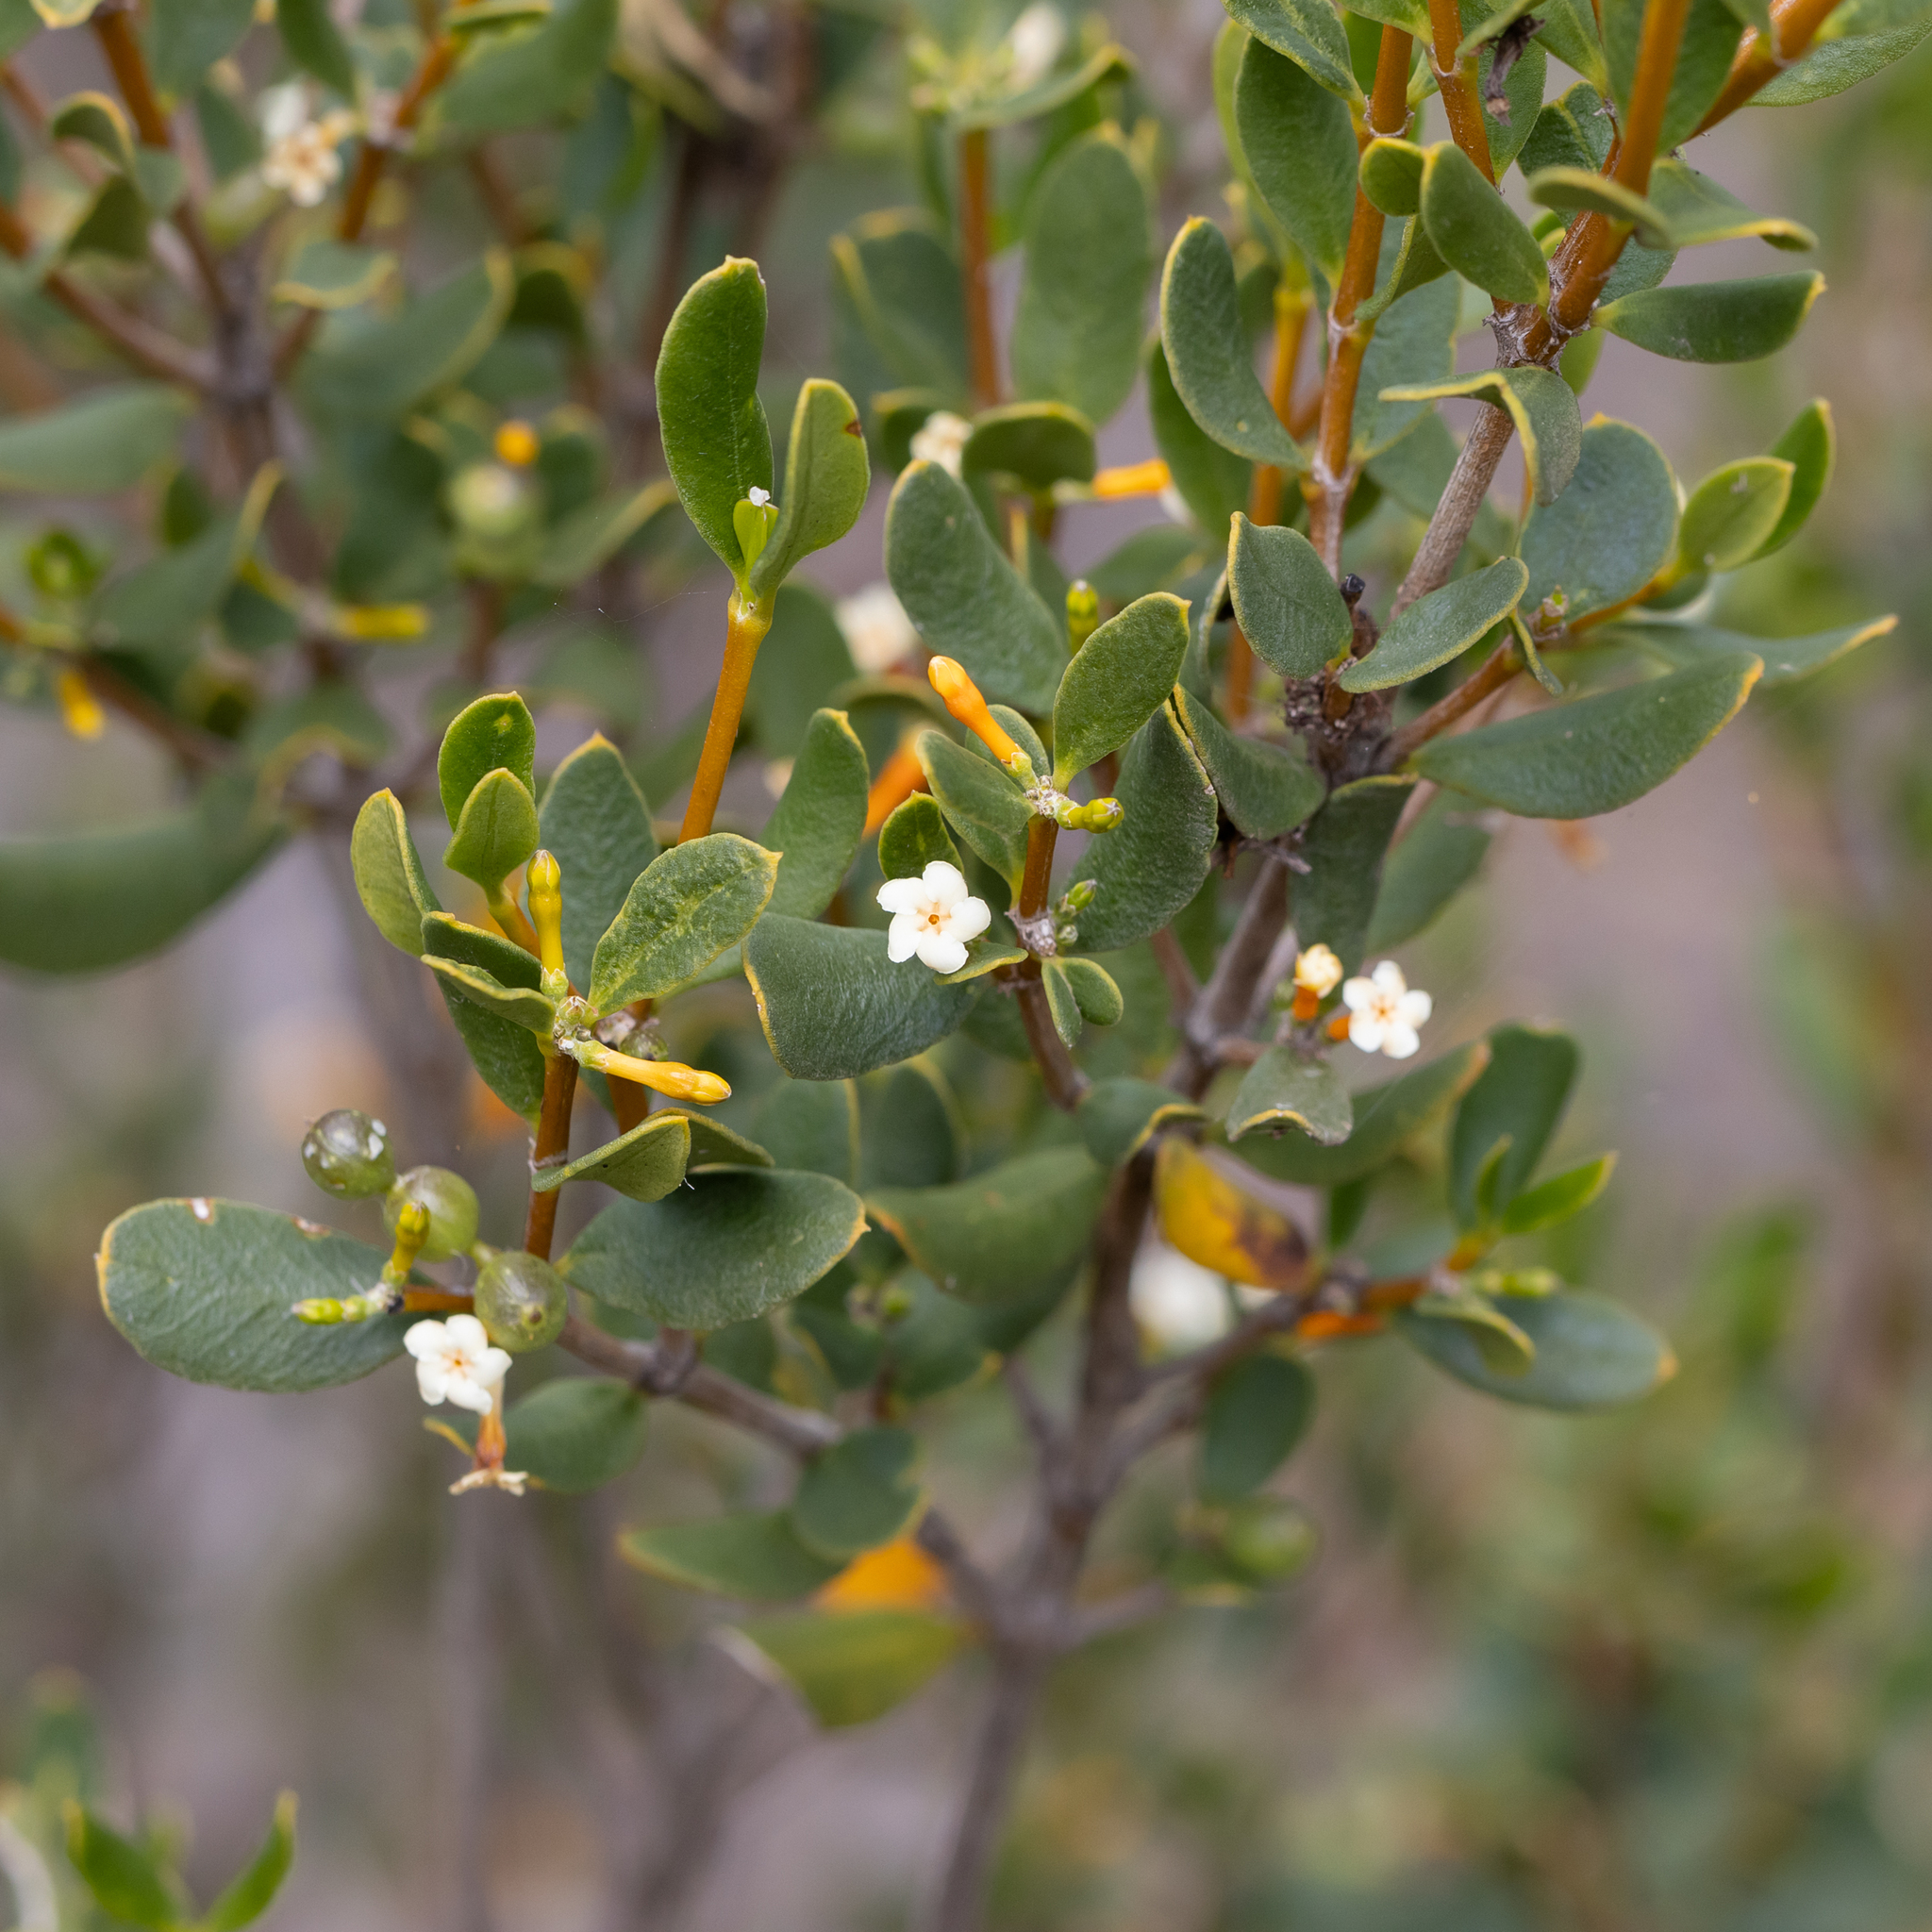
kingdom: Plantae
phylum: Tracheophyta
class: Magnoliopsida
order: Gentianales
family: Apocynaceae
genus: Alyxia
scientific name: Alyxia buxifolia
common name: Dysentery-bush
